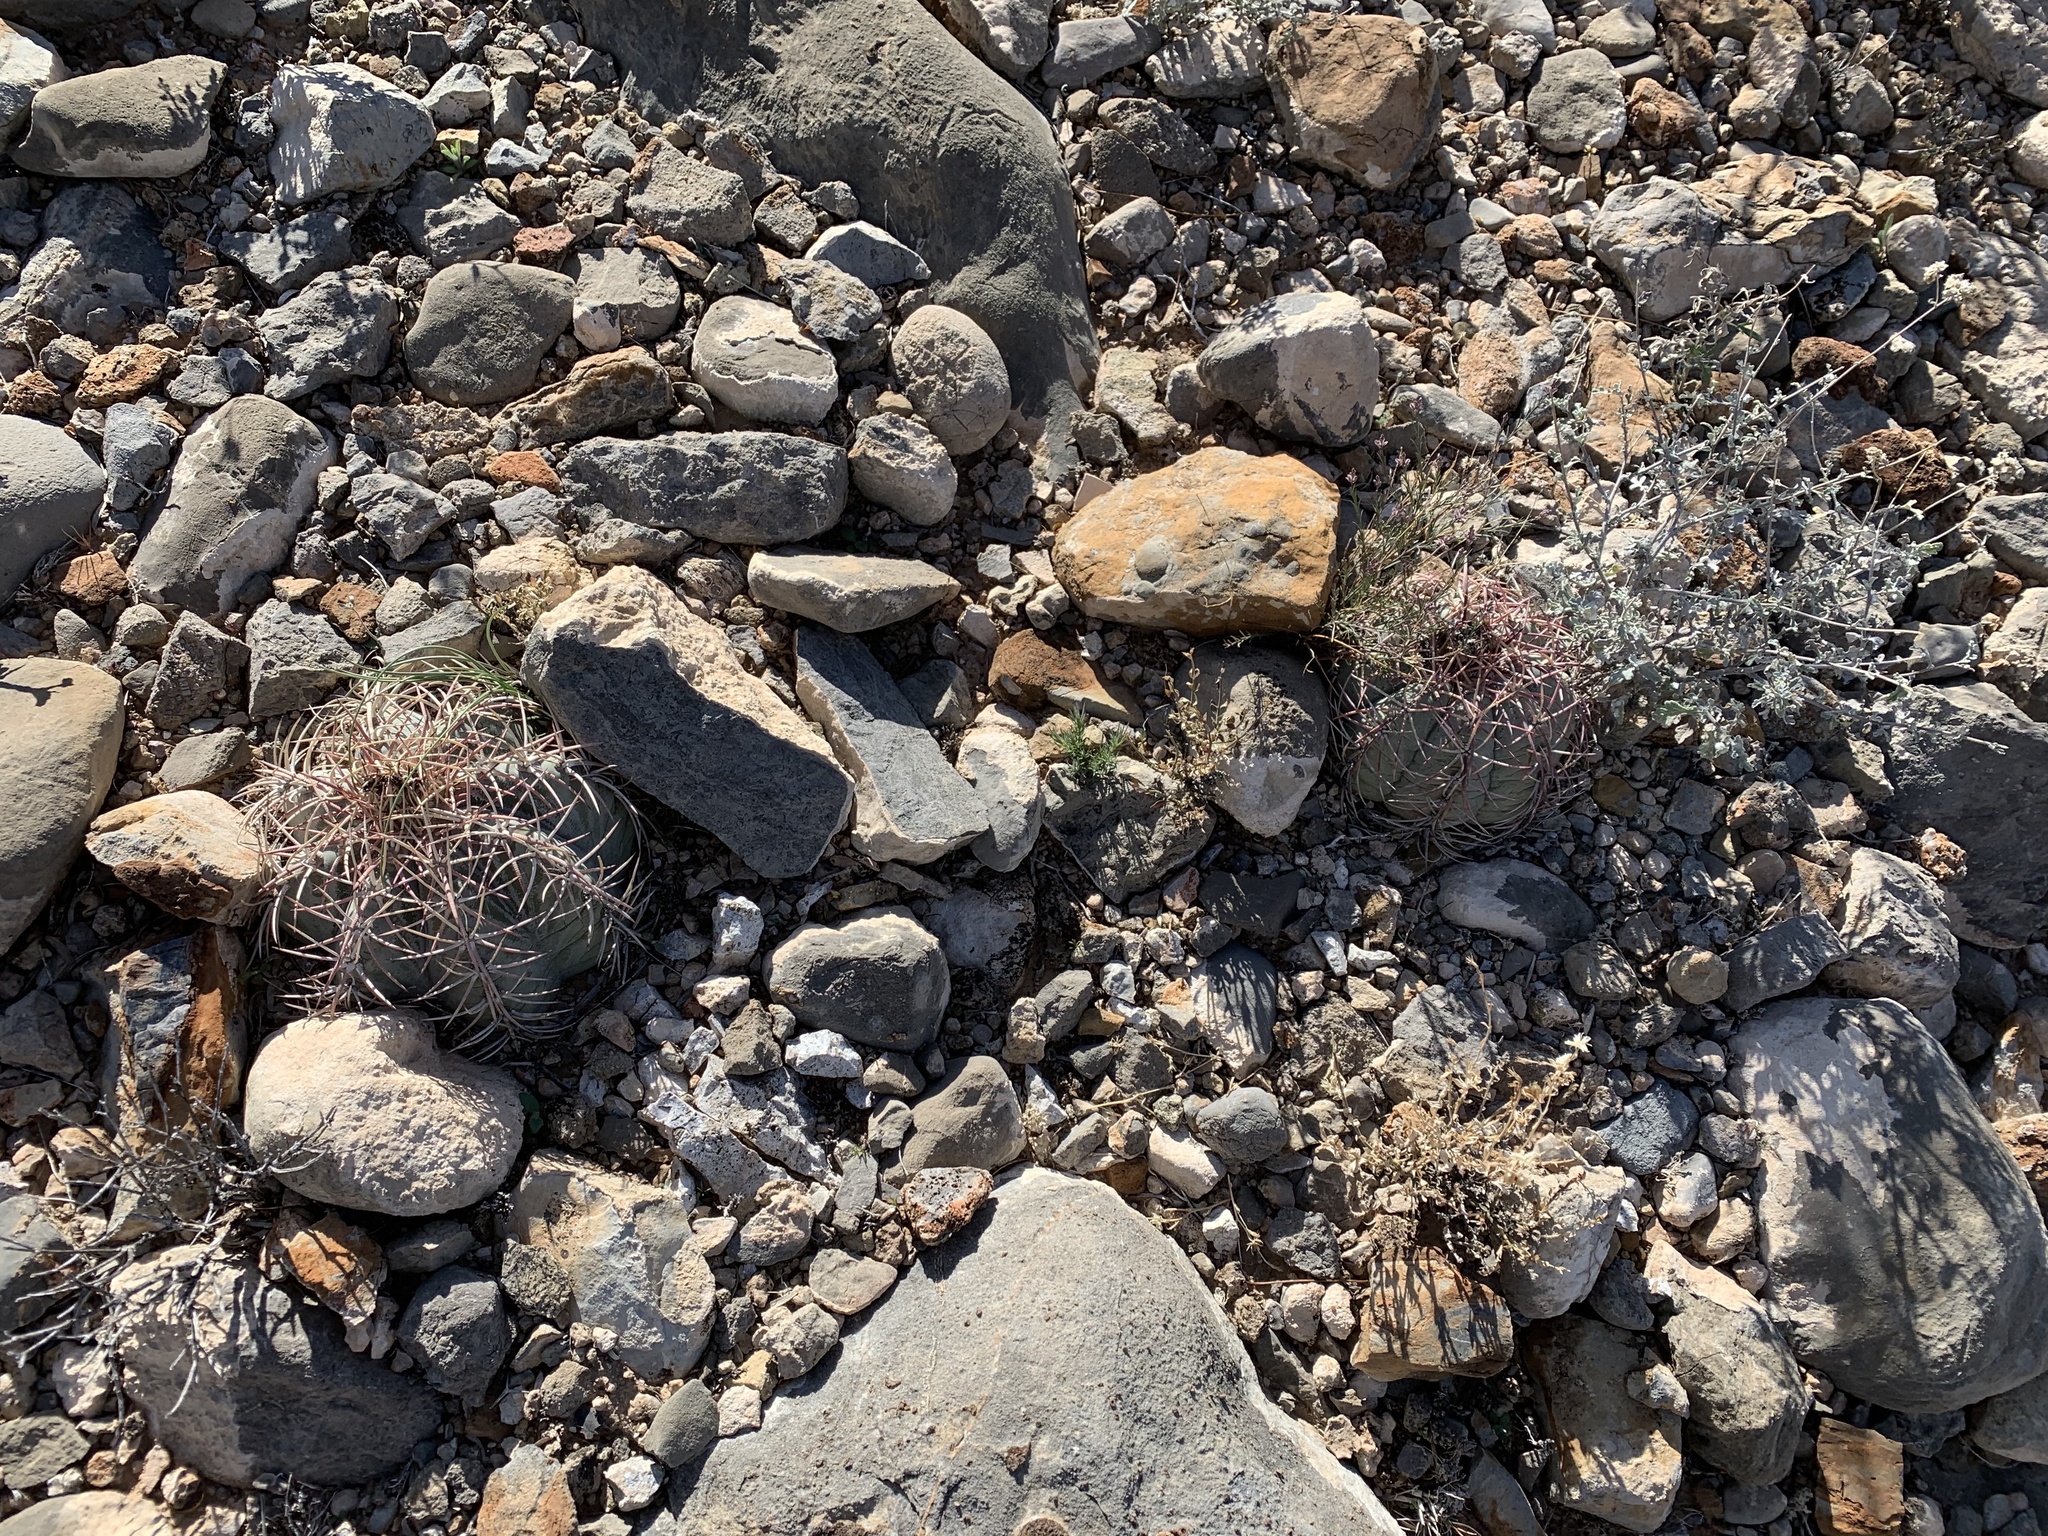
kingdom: Plantae
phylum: Tracheophyta
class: Magnoliopsida
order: Caryophyllales
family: Cactaceae
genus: Echinocactus
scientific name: Echinocactus horizonthalonius
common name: Devilshead
